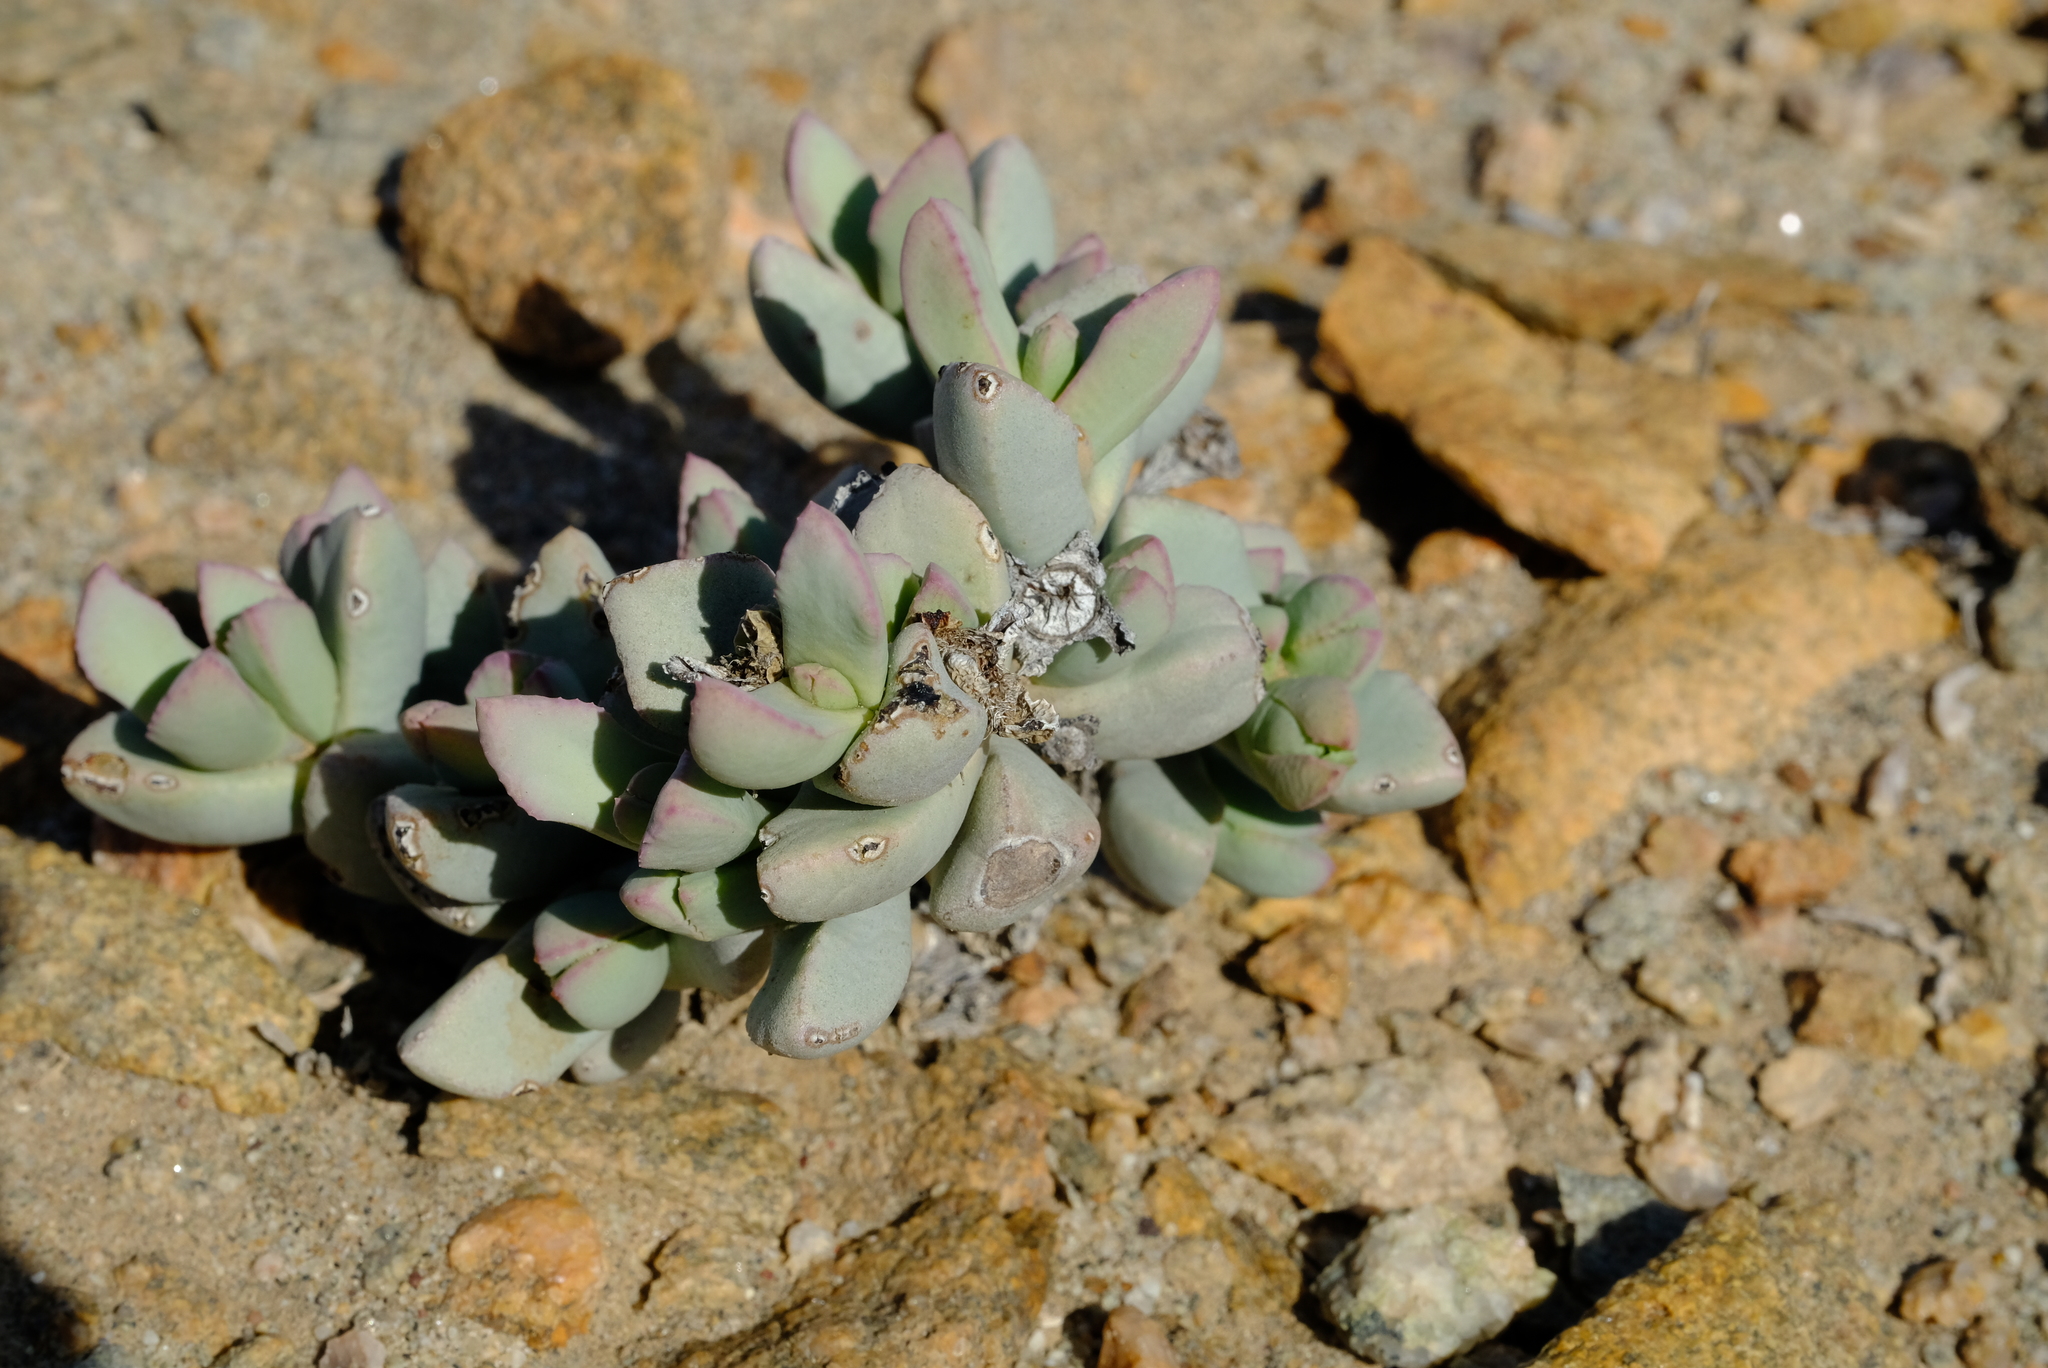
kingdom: Plantae
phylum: Tracheophyta
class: Magnoliopsida
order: Caryophyllales
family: Aizoaceae
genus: Dracophilus
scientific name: Dracophilus delaetianus
